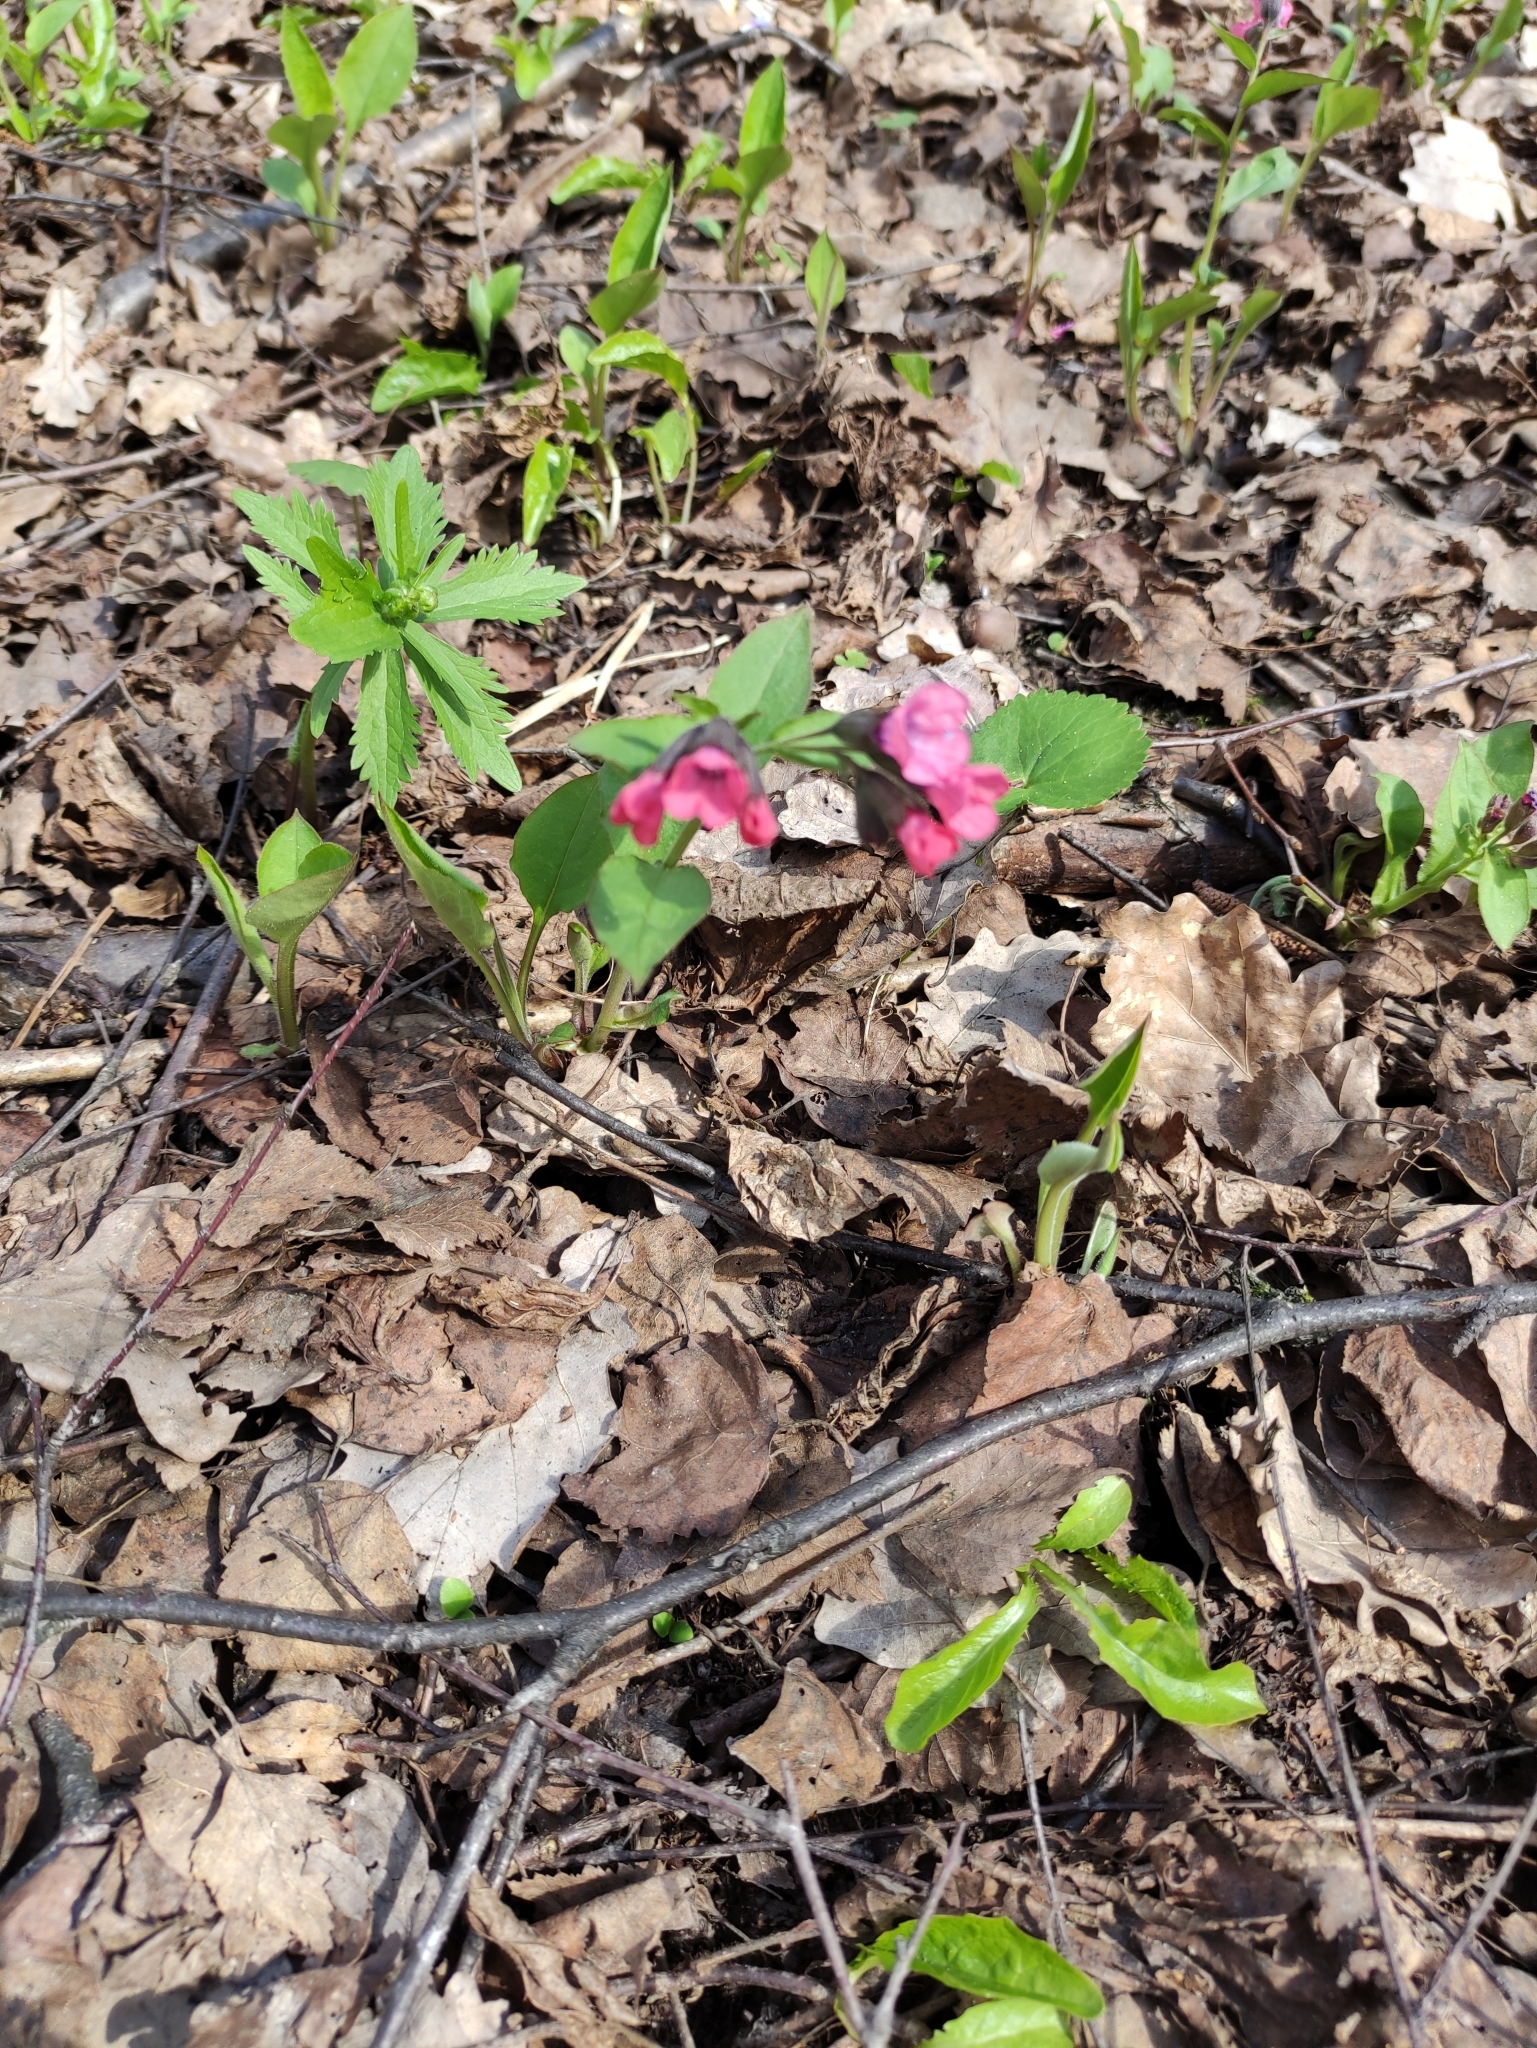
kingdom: Plantae
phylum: Tracheophyta
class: Magnoliopsida
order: Boraginales
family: Boraginaceae
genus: Pulmonaria
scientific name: Pulmonaria obscura
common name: Suffolk lungwort
